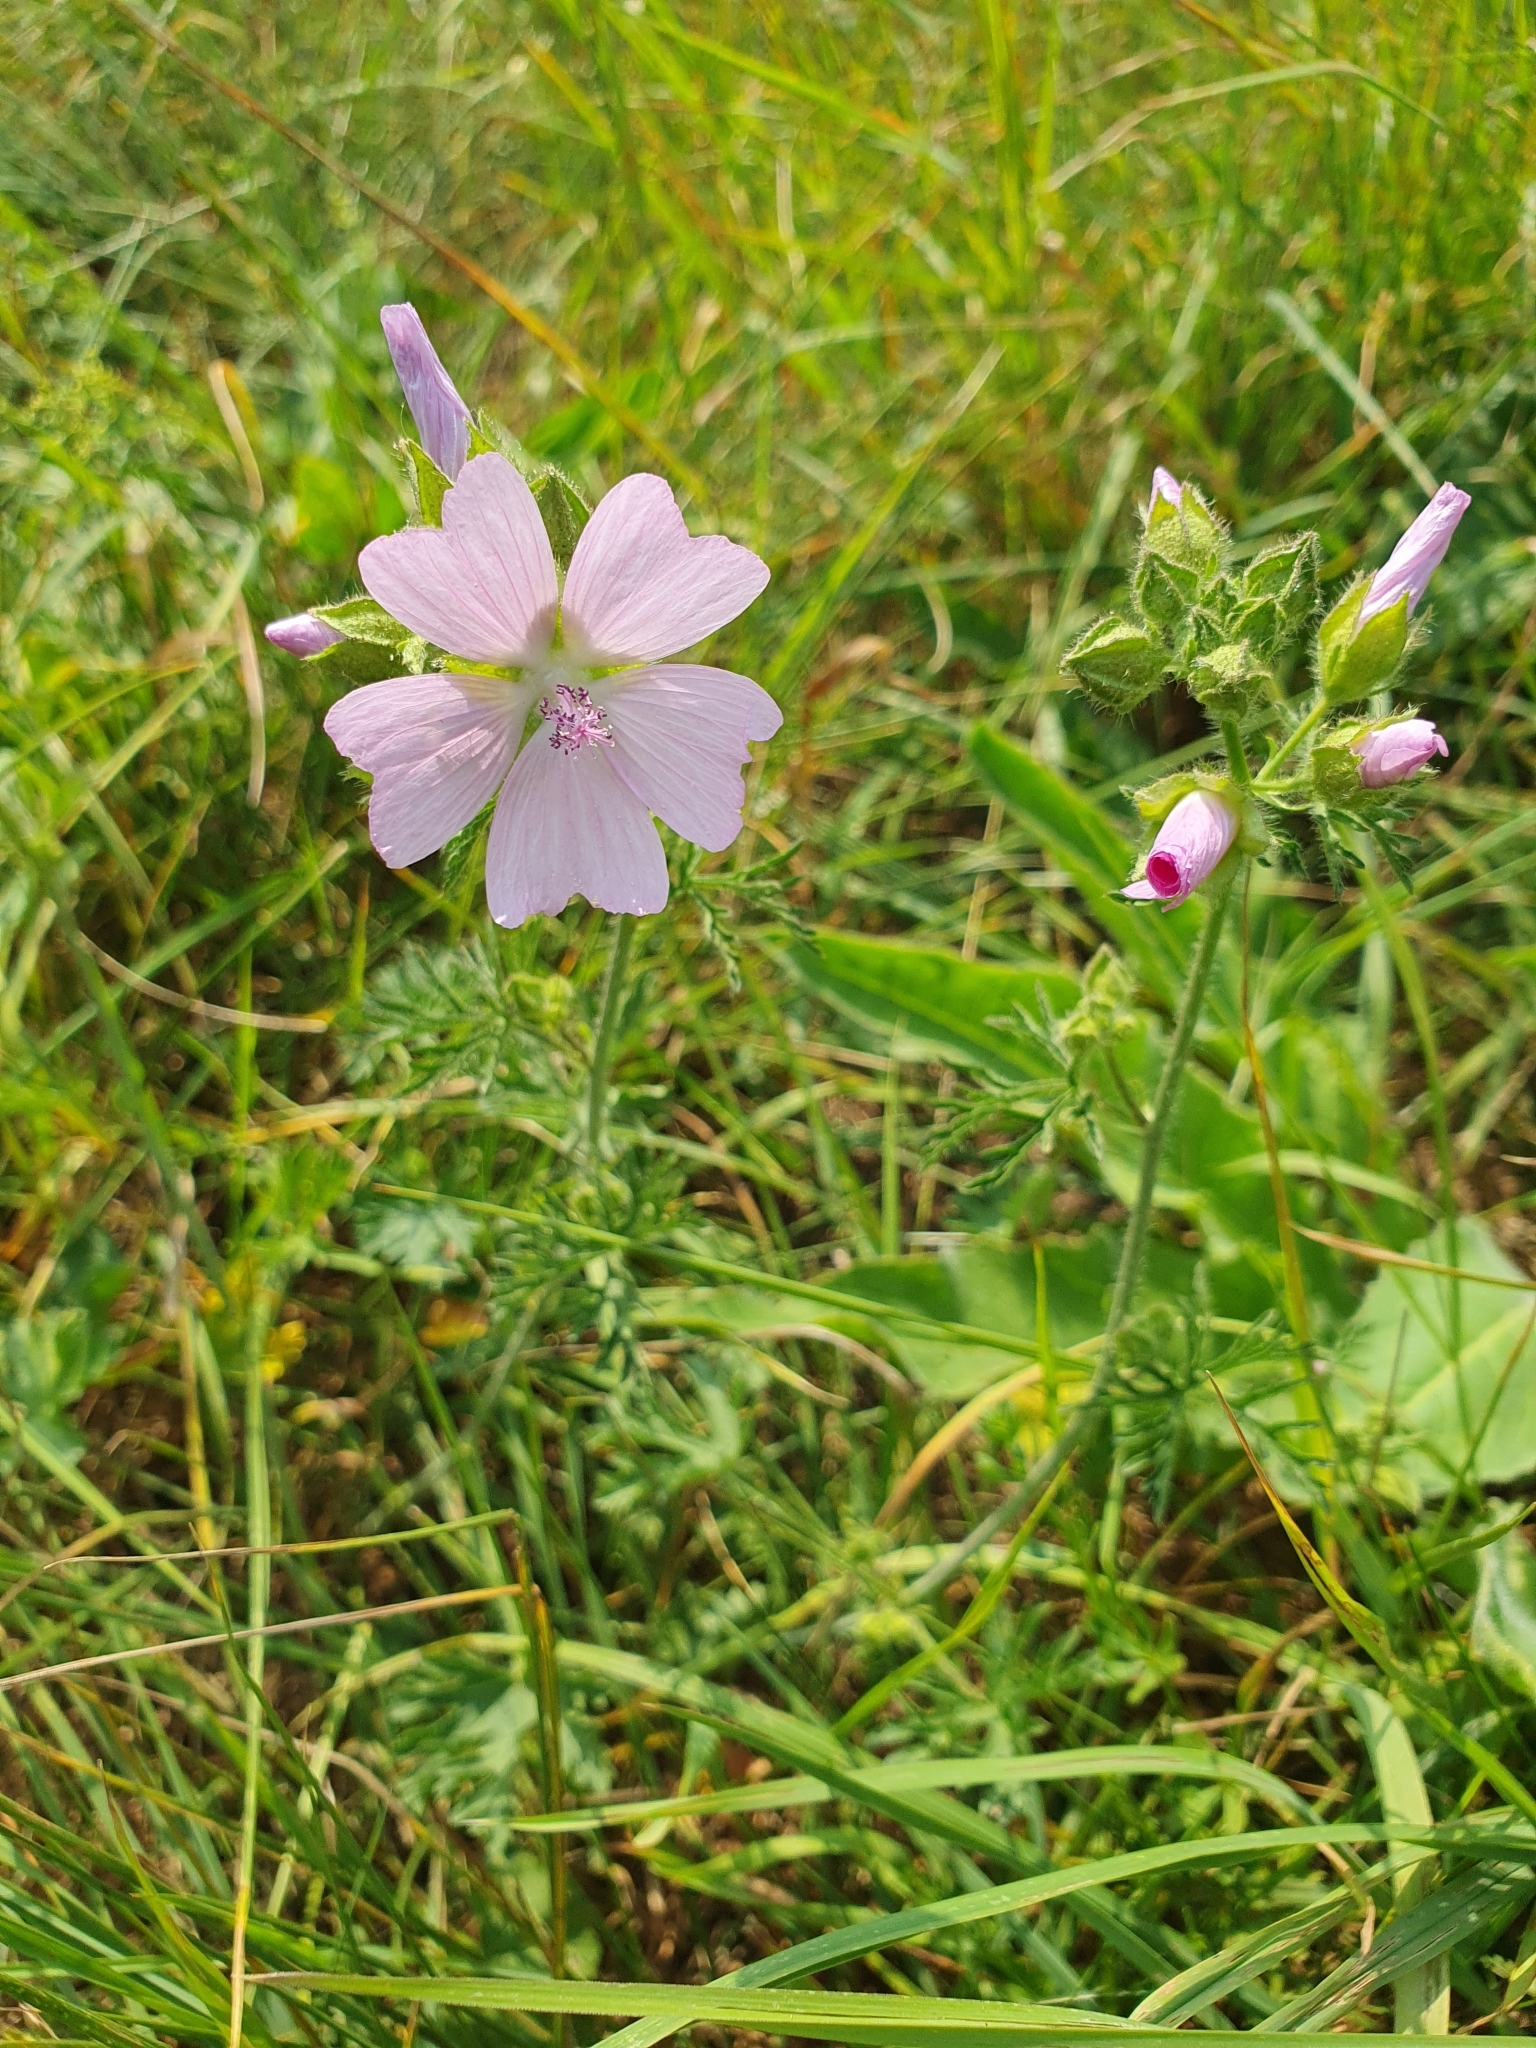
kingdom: Plantae
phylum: Tracheophyta
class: Magnoliopsida
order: Malvales
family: Malvaceae
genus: Malva
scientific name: Malva moschata
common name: Musk mallow
